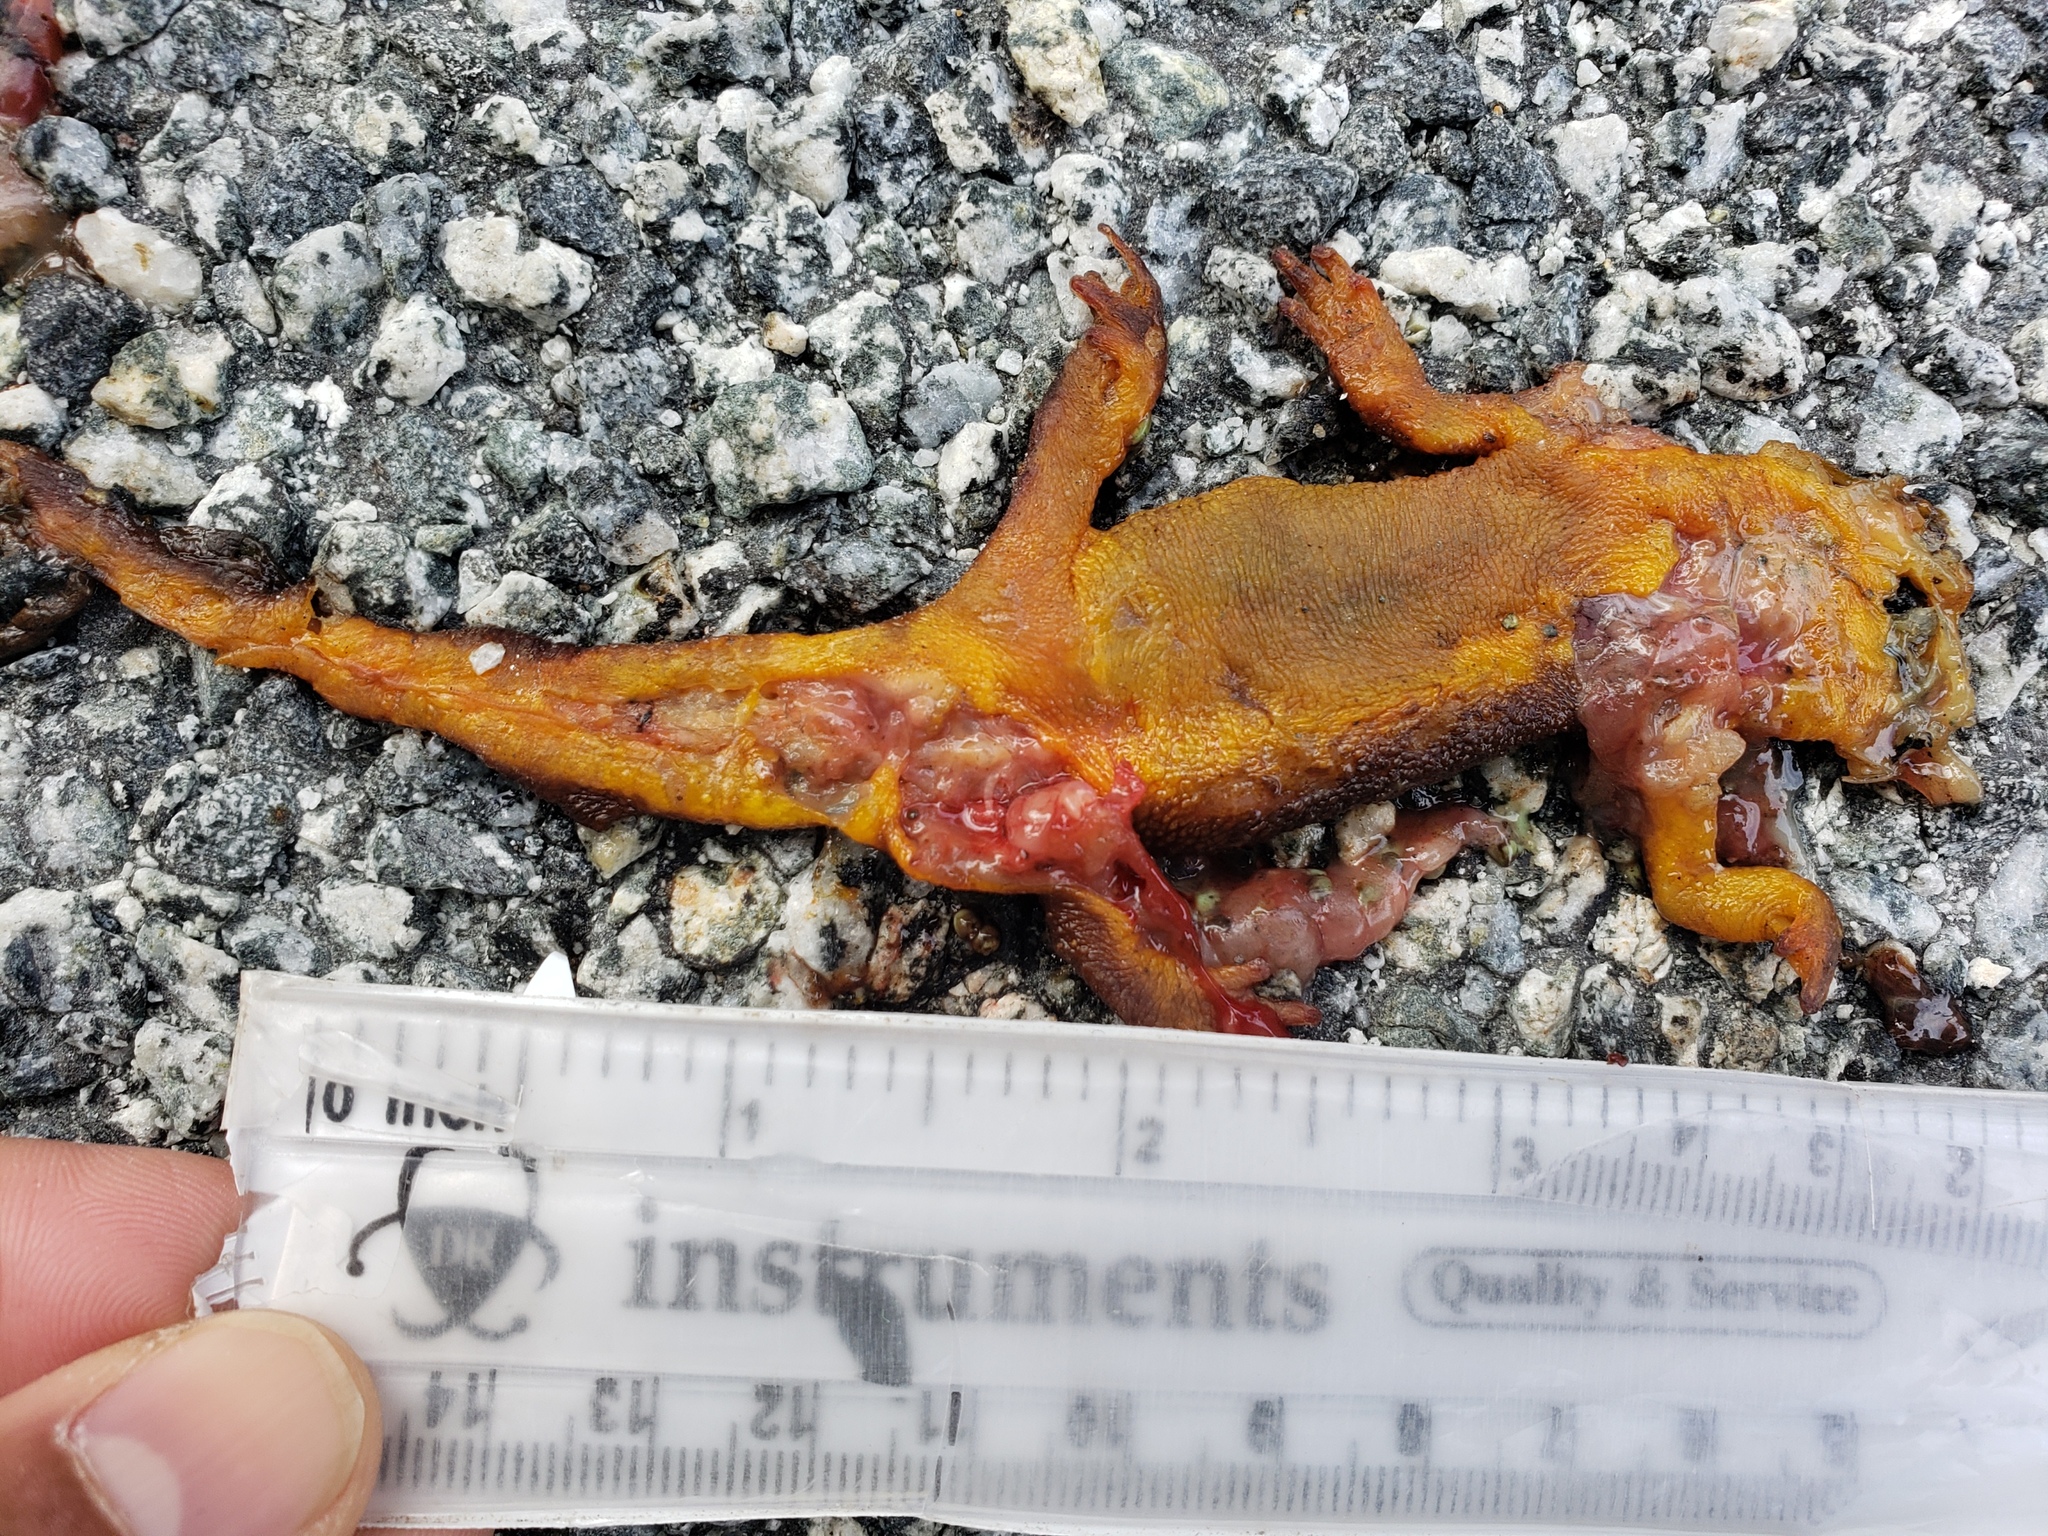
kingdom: Animalia
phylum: Chordata
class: Amphibia
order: Caudata
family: Salamandridae
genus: Taricha
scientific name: Taricha
